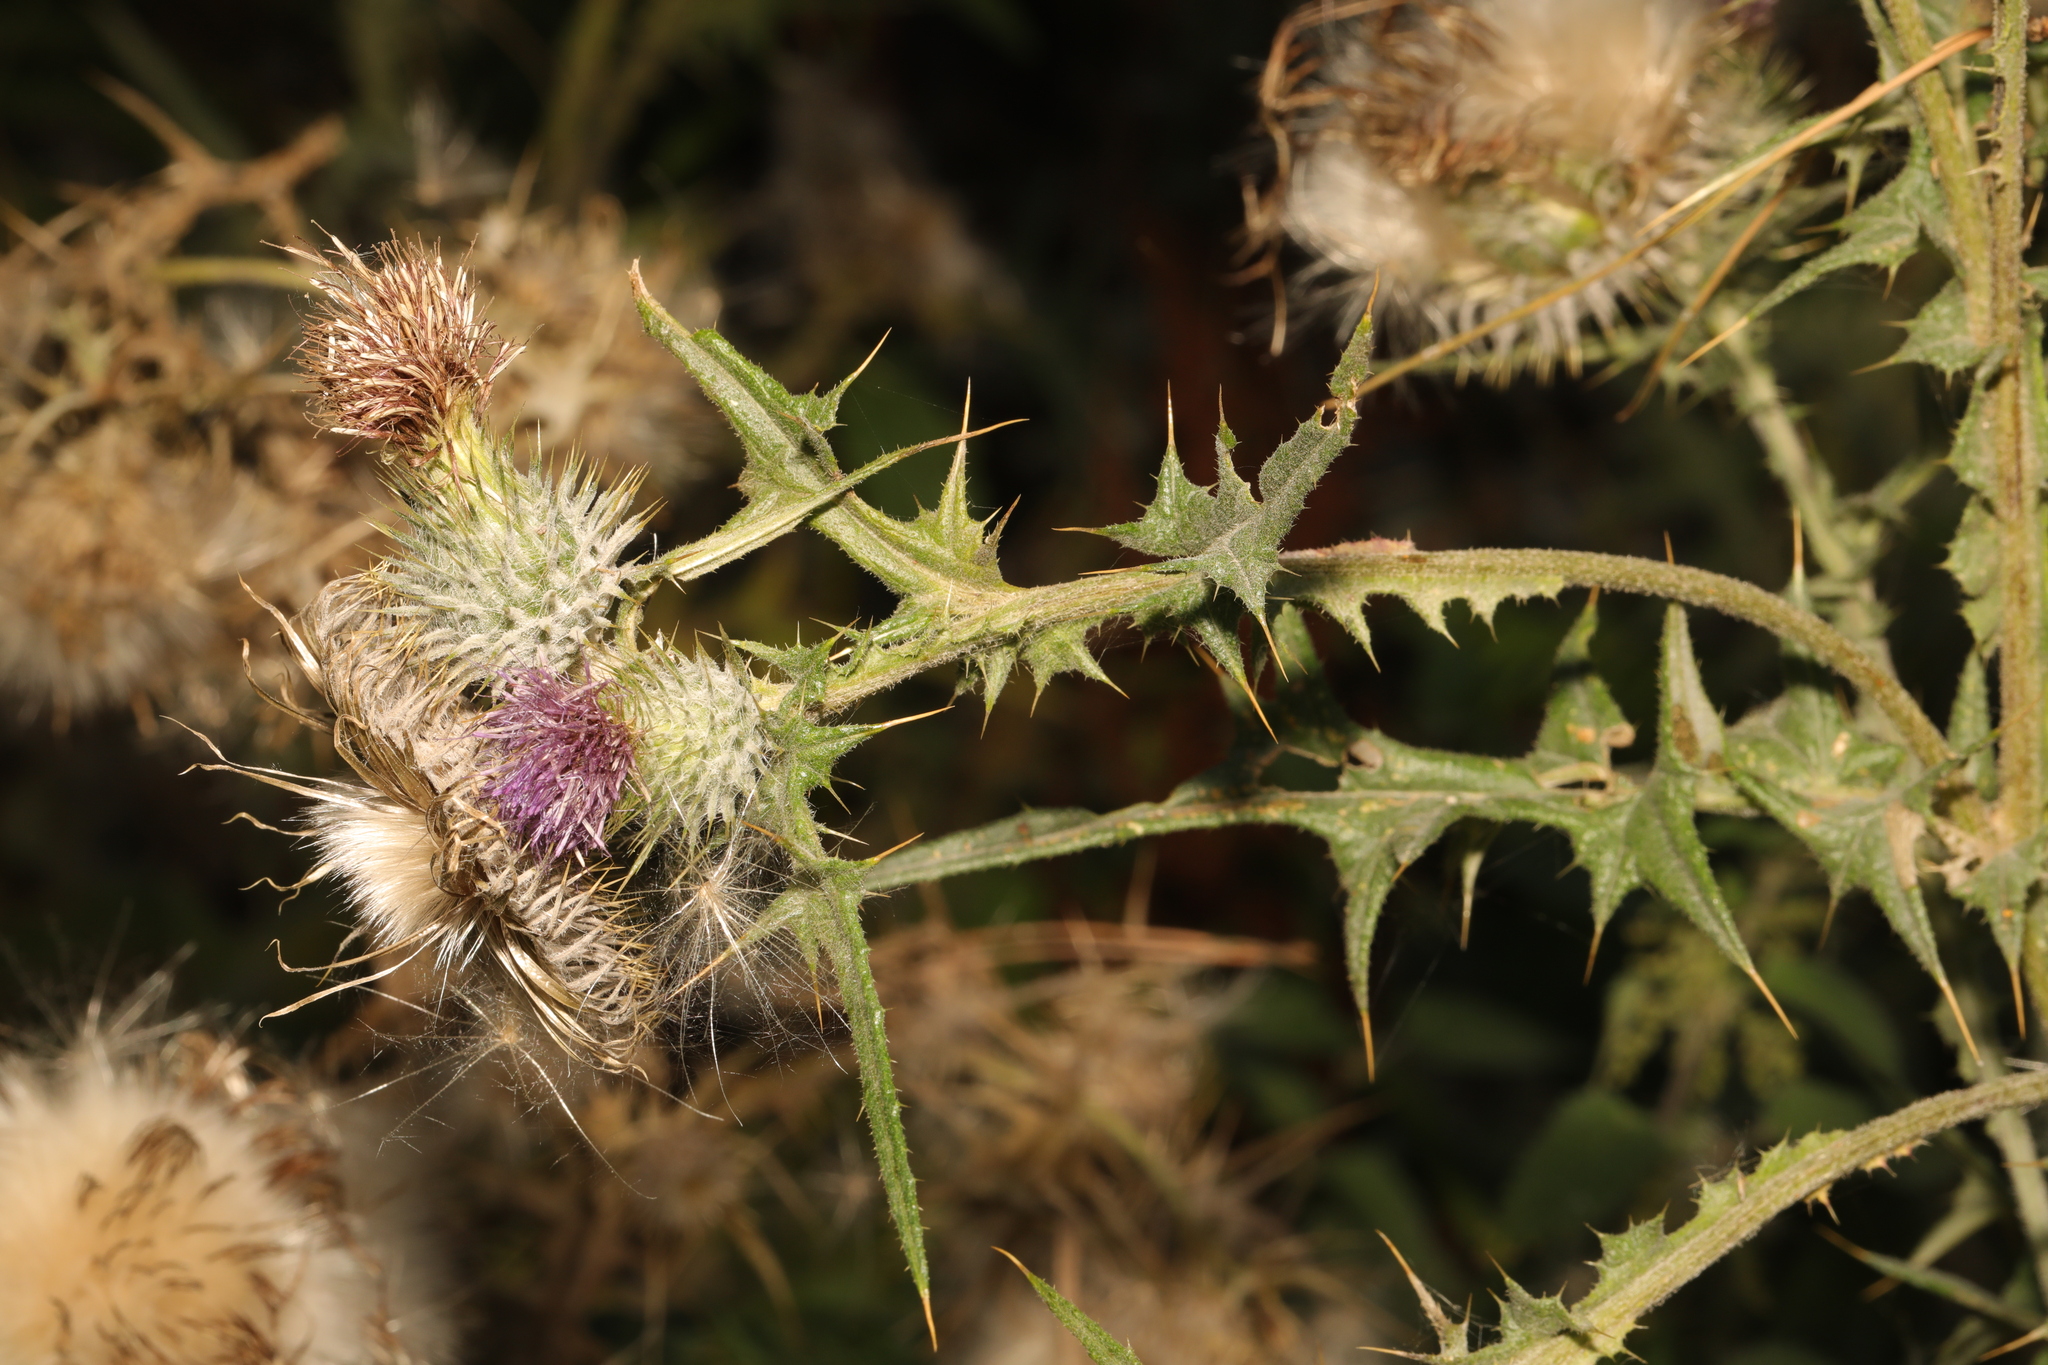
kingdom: Plantae
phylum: Tracheophyta
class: Magnoliopsida
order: Asterales
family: Asteraceae
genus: Cirsium
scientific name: Cirsium vulgare
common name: Bull thistle
